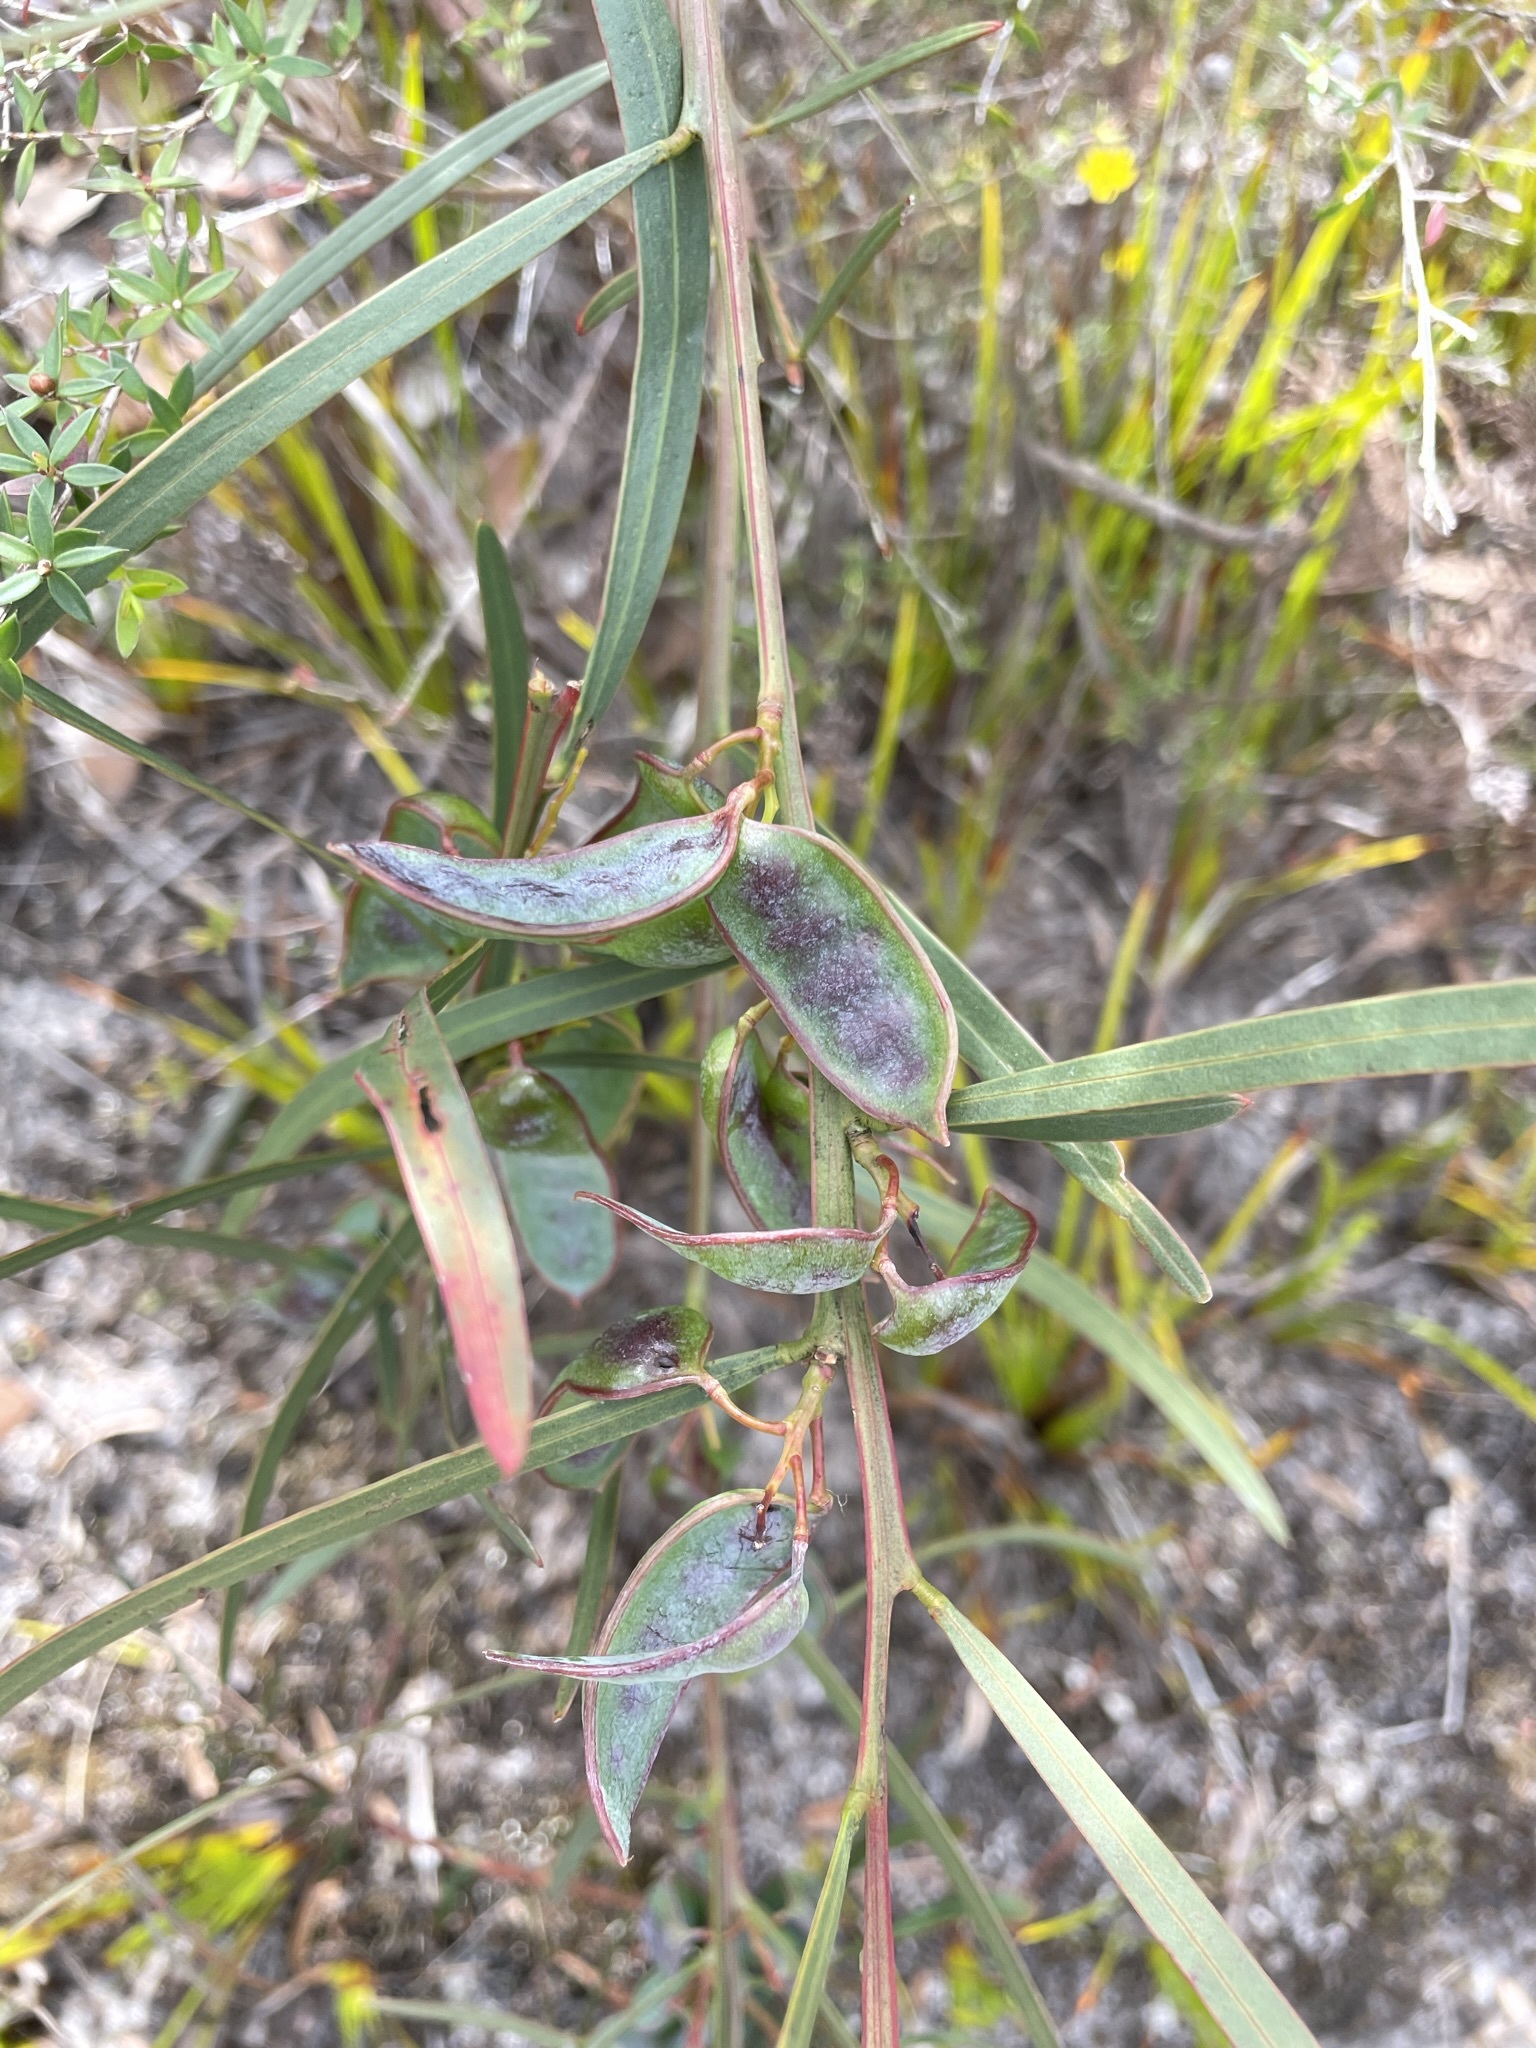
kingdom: Plantae
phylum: Tracheophyta
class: Magnoliopsida
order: Fabales
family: Fabaceae
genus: Acacia
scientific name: Acacia suaveolens
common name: Sweet acacia
